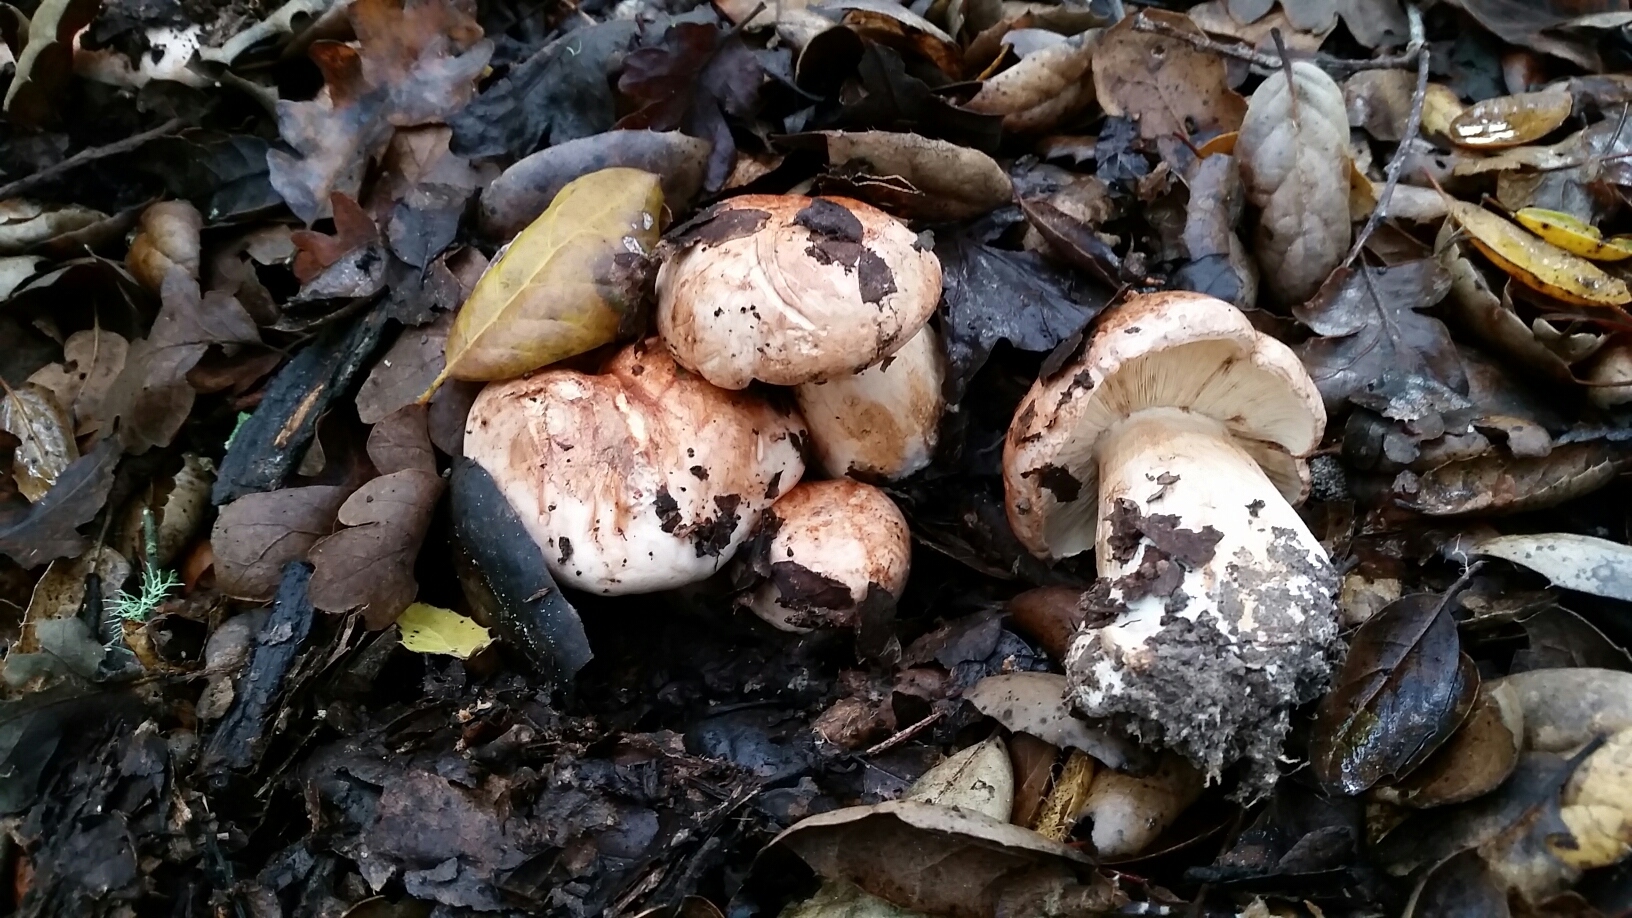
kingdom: Fungi
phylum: Basidiomycota
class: Agaricomycetes
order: Agaricales
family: Tricholomataceae
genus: Melanoleuca
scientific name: Melanoleuca dryophila
